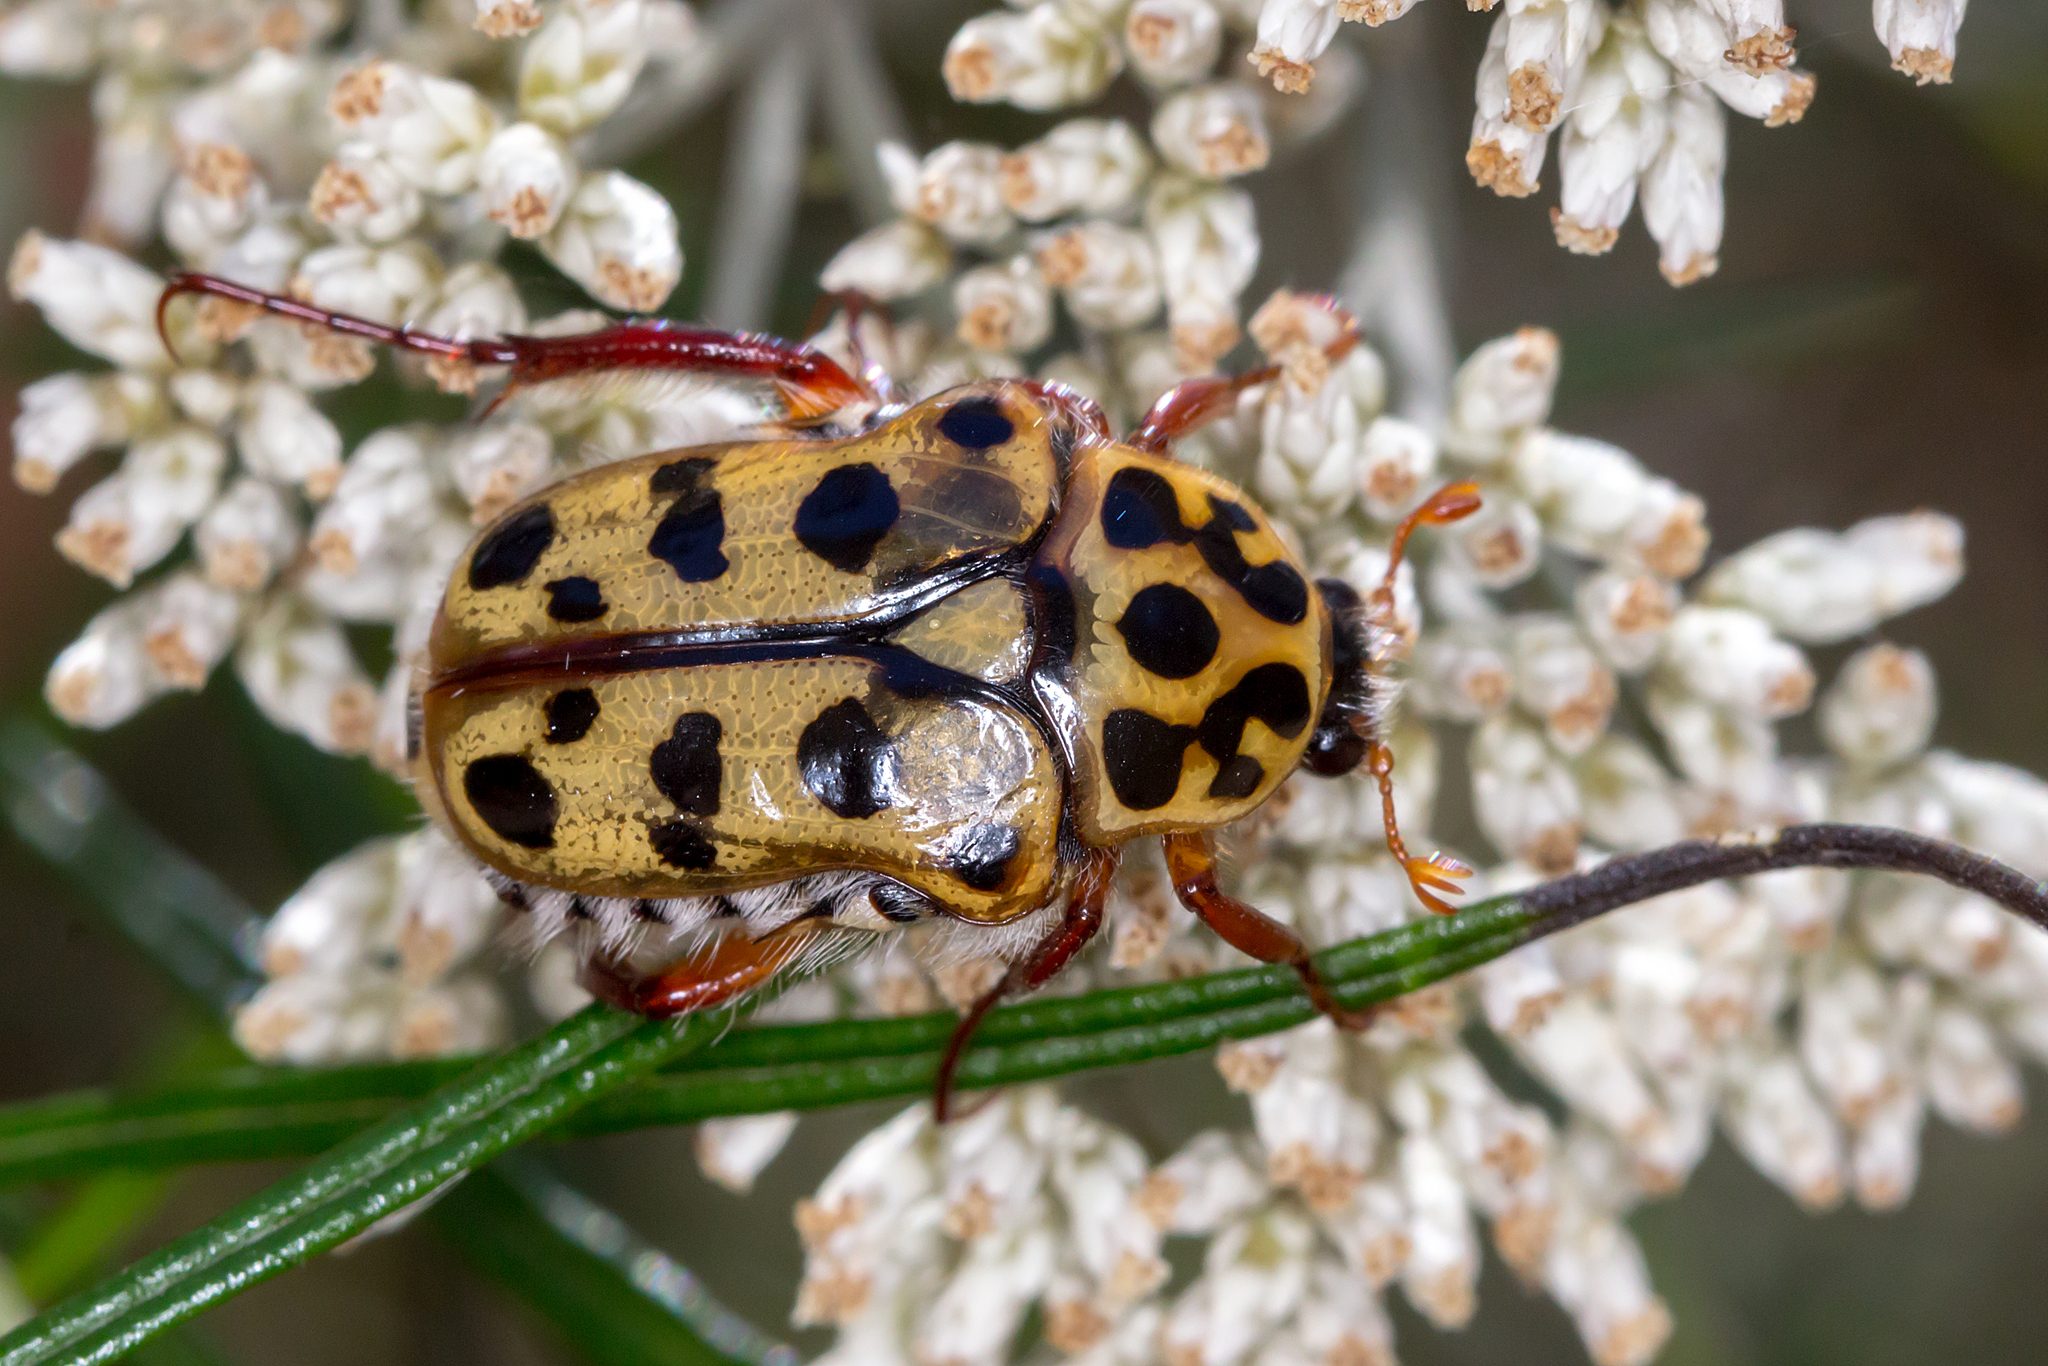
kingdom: Animalia
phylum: Arthropoda
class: Insecta
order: Coleoptera
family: Scarabaeidae
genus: Neorrhina
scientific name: Neorrhina punctatum
